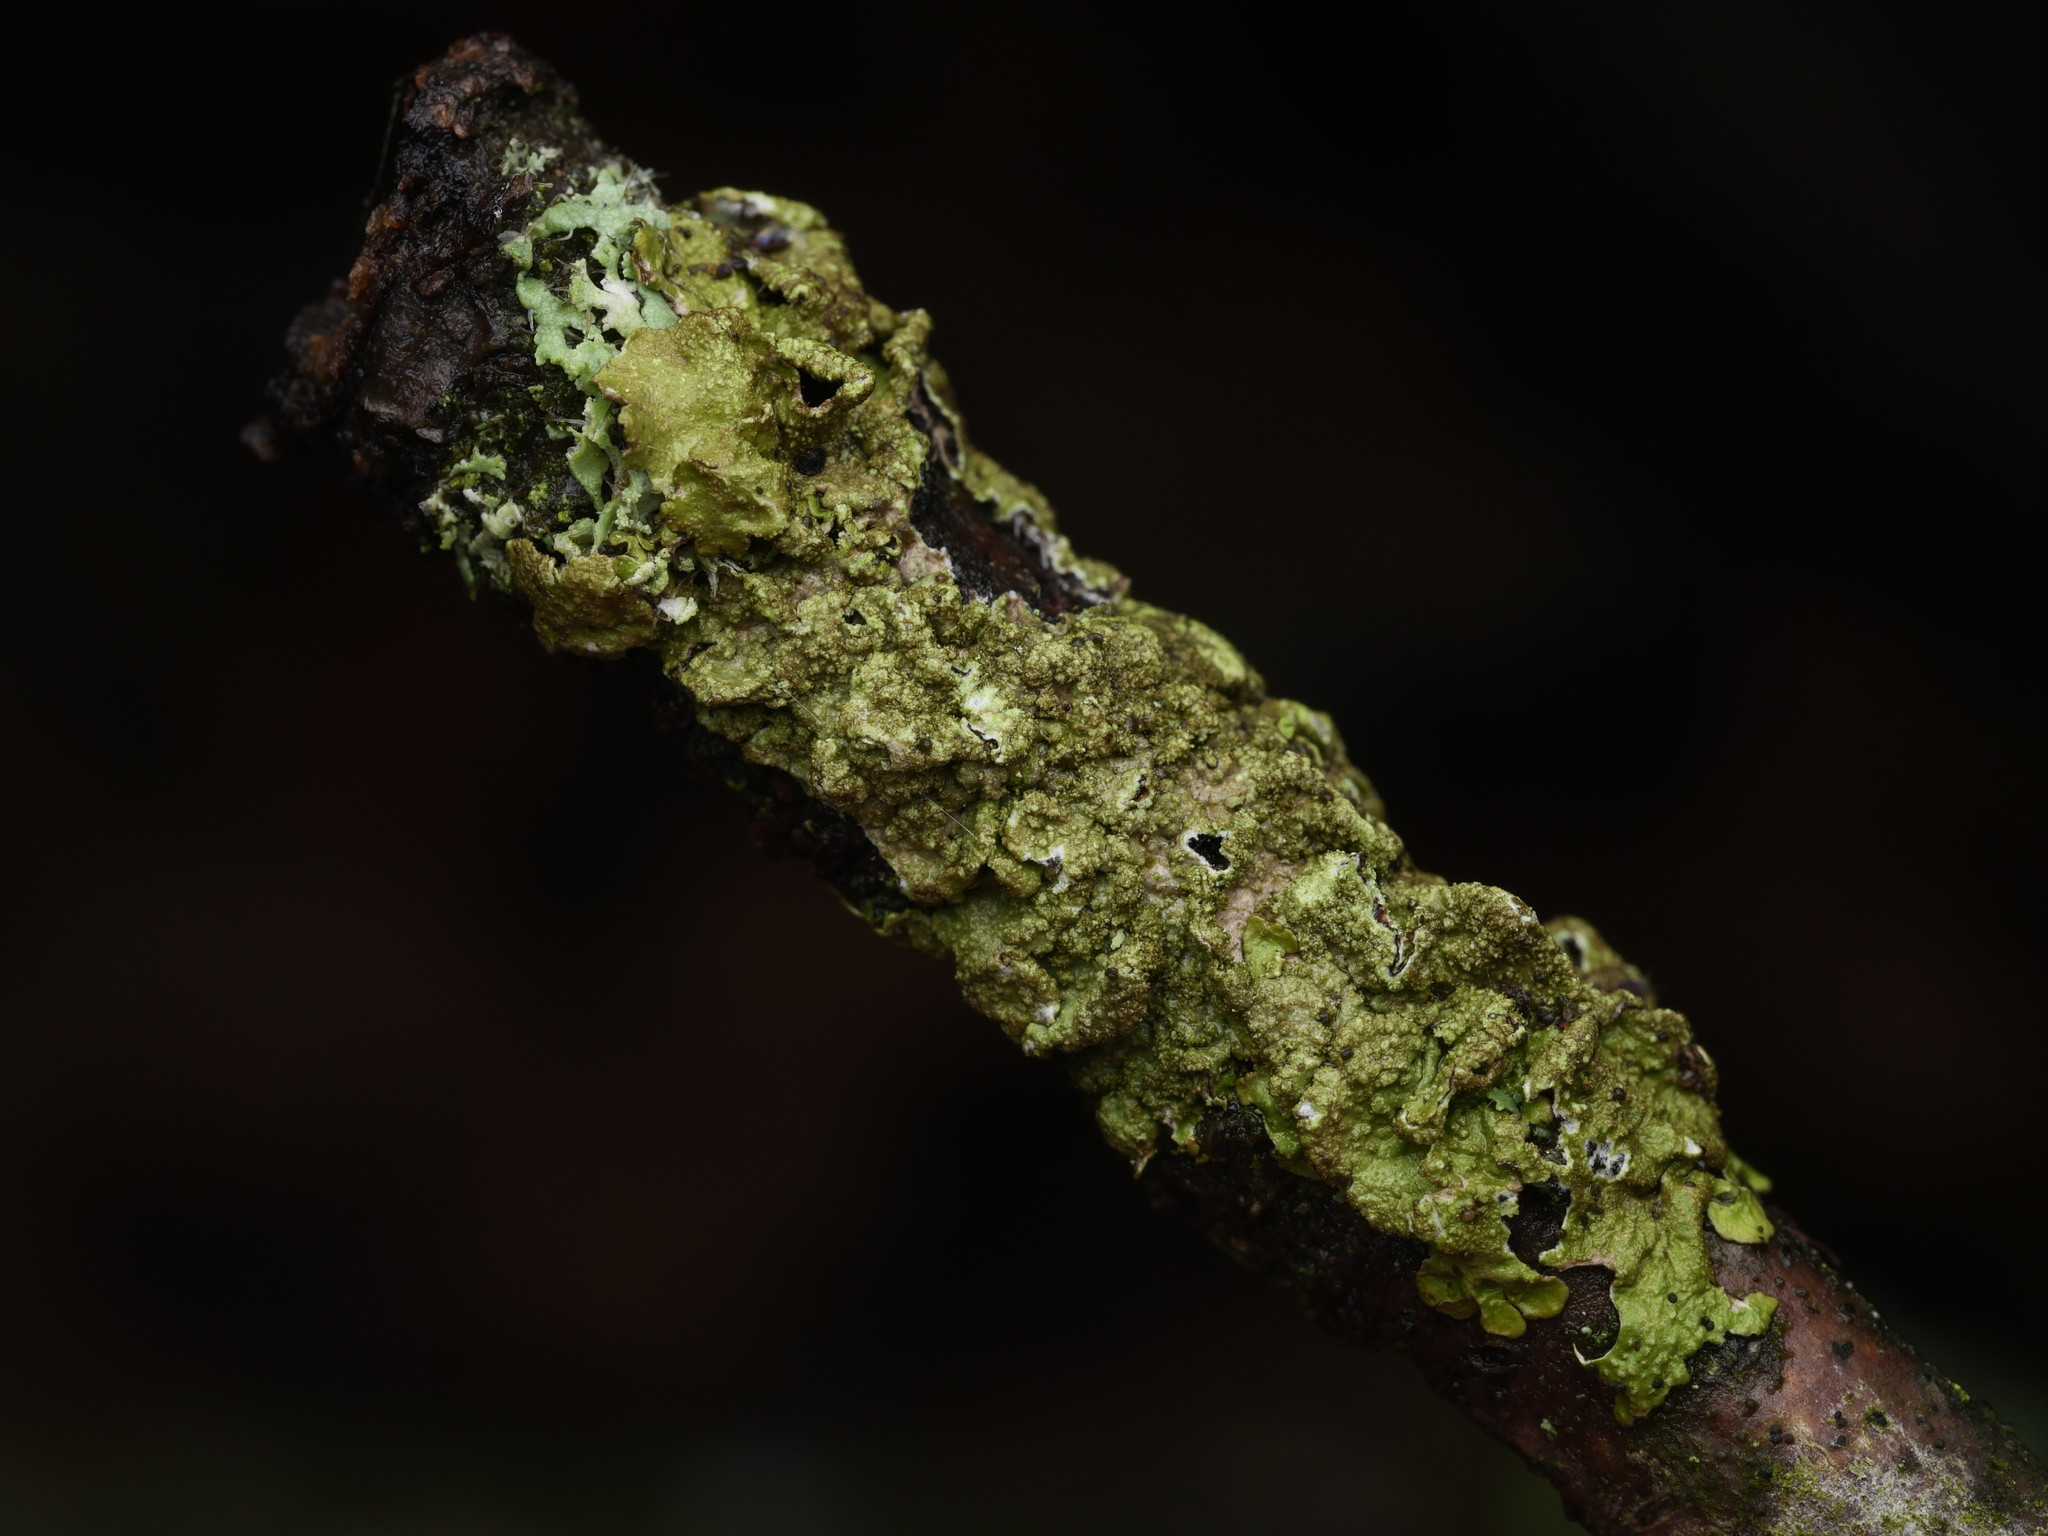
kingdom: Fungi
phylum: Ascomycota
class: Lecanoromycetes
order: Lecanorales
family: Parmeliaceae
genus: Melanelixia
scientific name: Melanelixia subaurifera
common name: Abraded camouflage lichen
